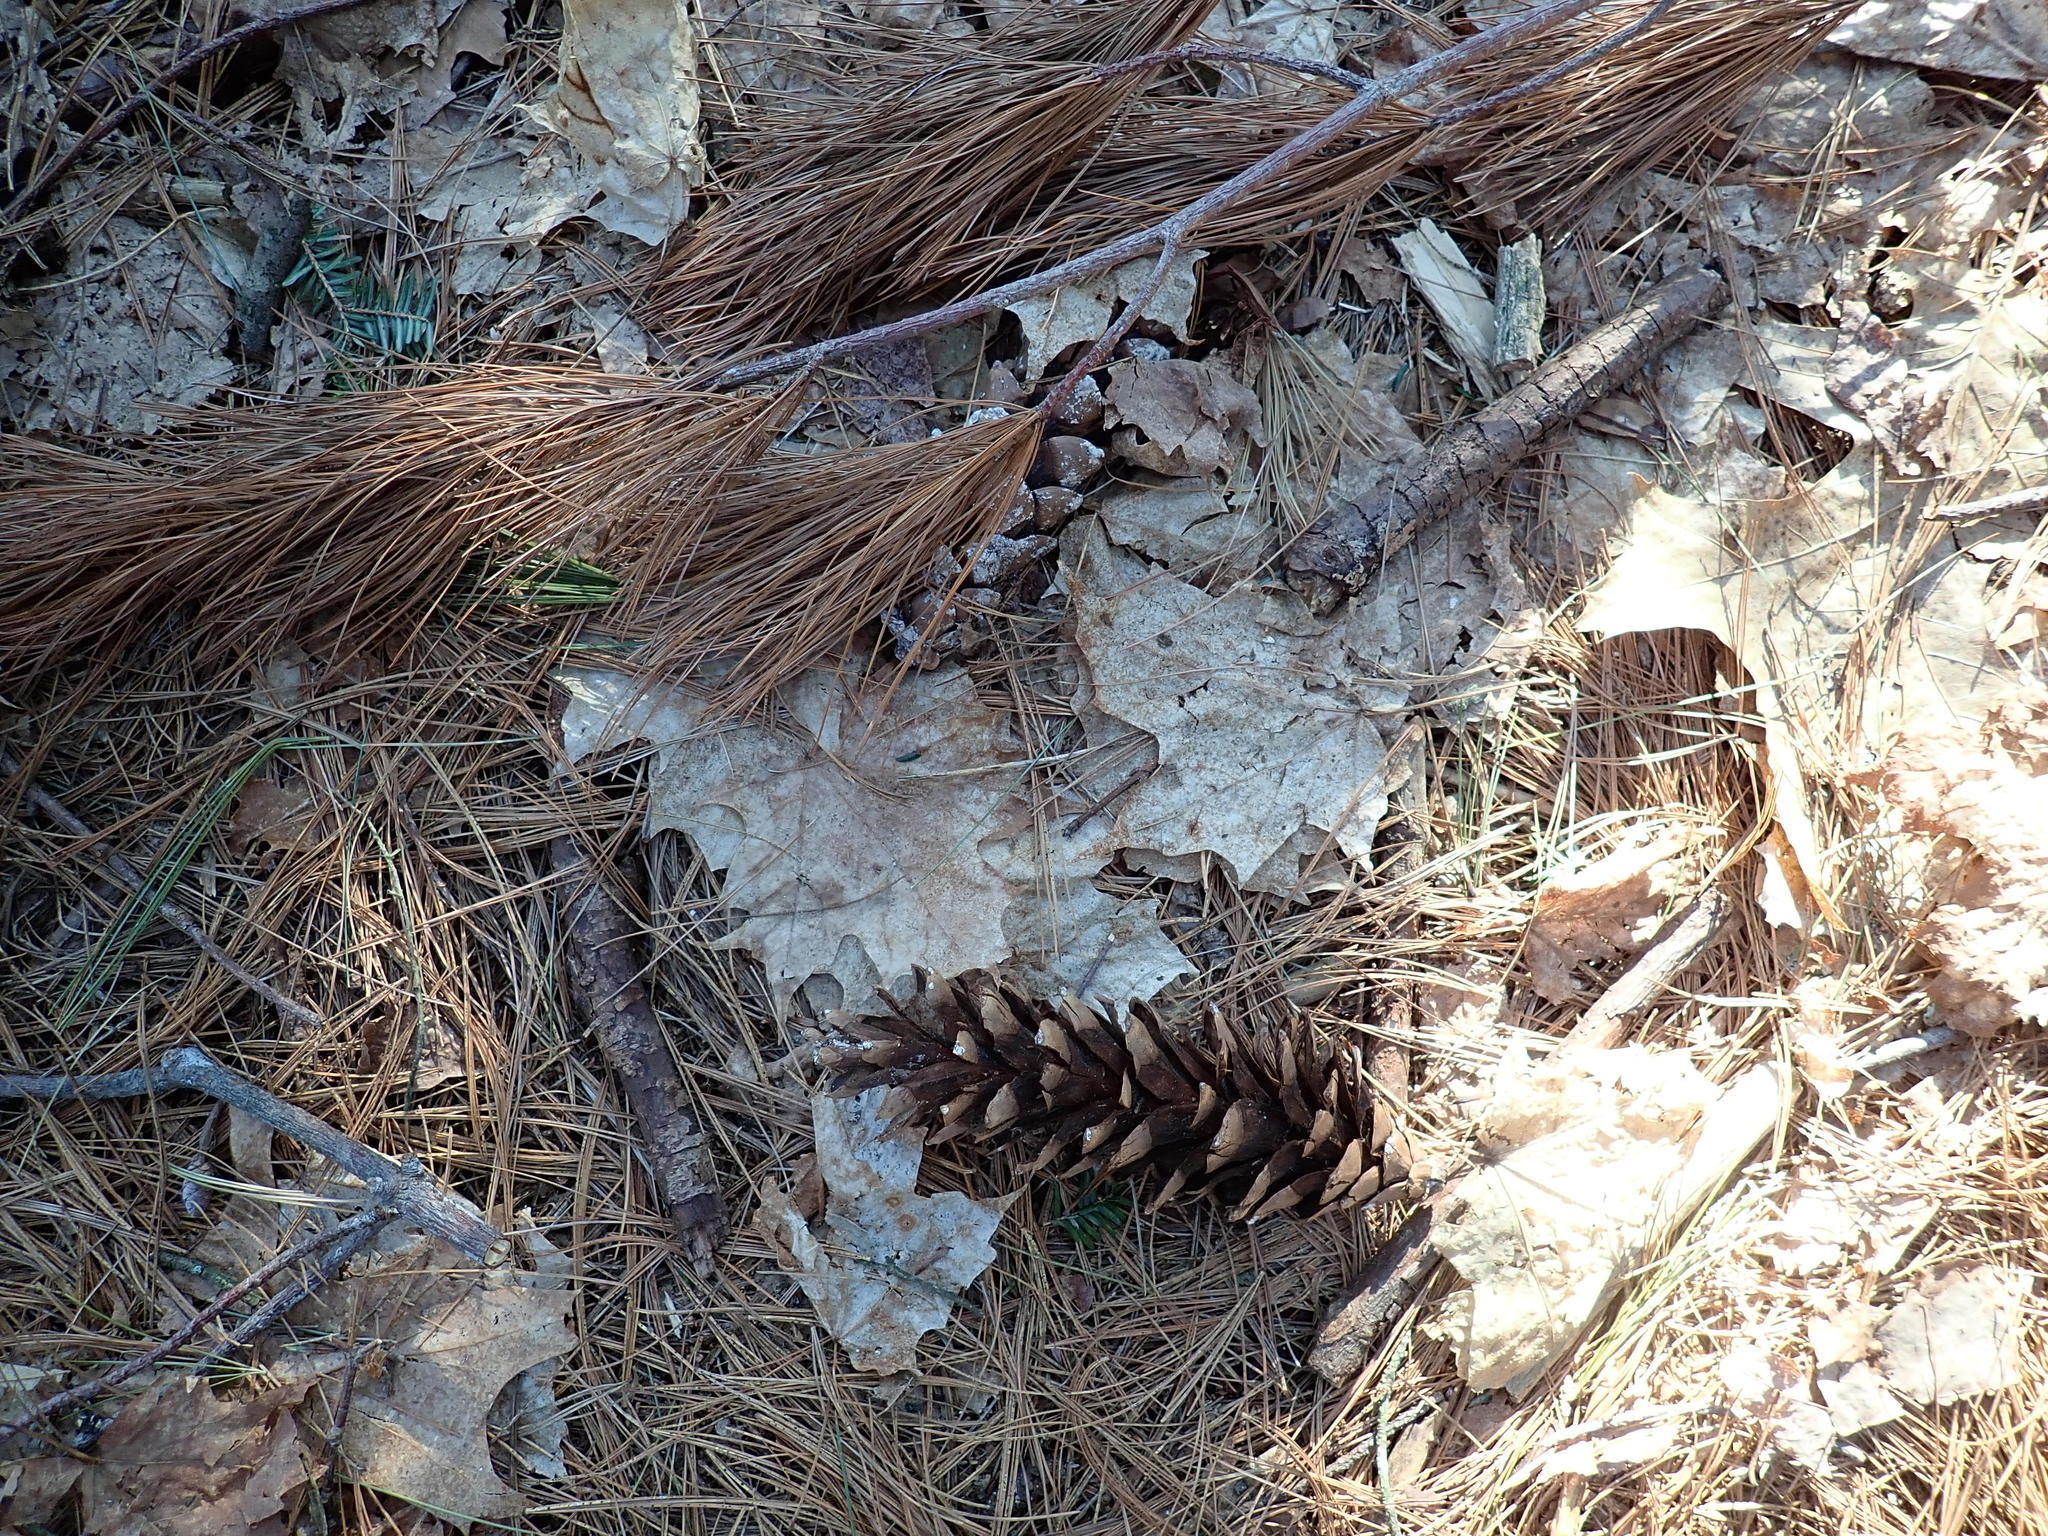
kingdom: Plantae
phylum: Tracheophyta
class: Pinopsida
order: Pinales
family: Pinaceae
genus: Pinus
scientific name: Pinus strobus
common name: Weymouth pine
